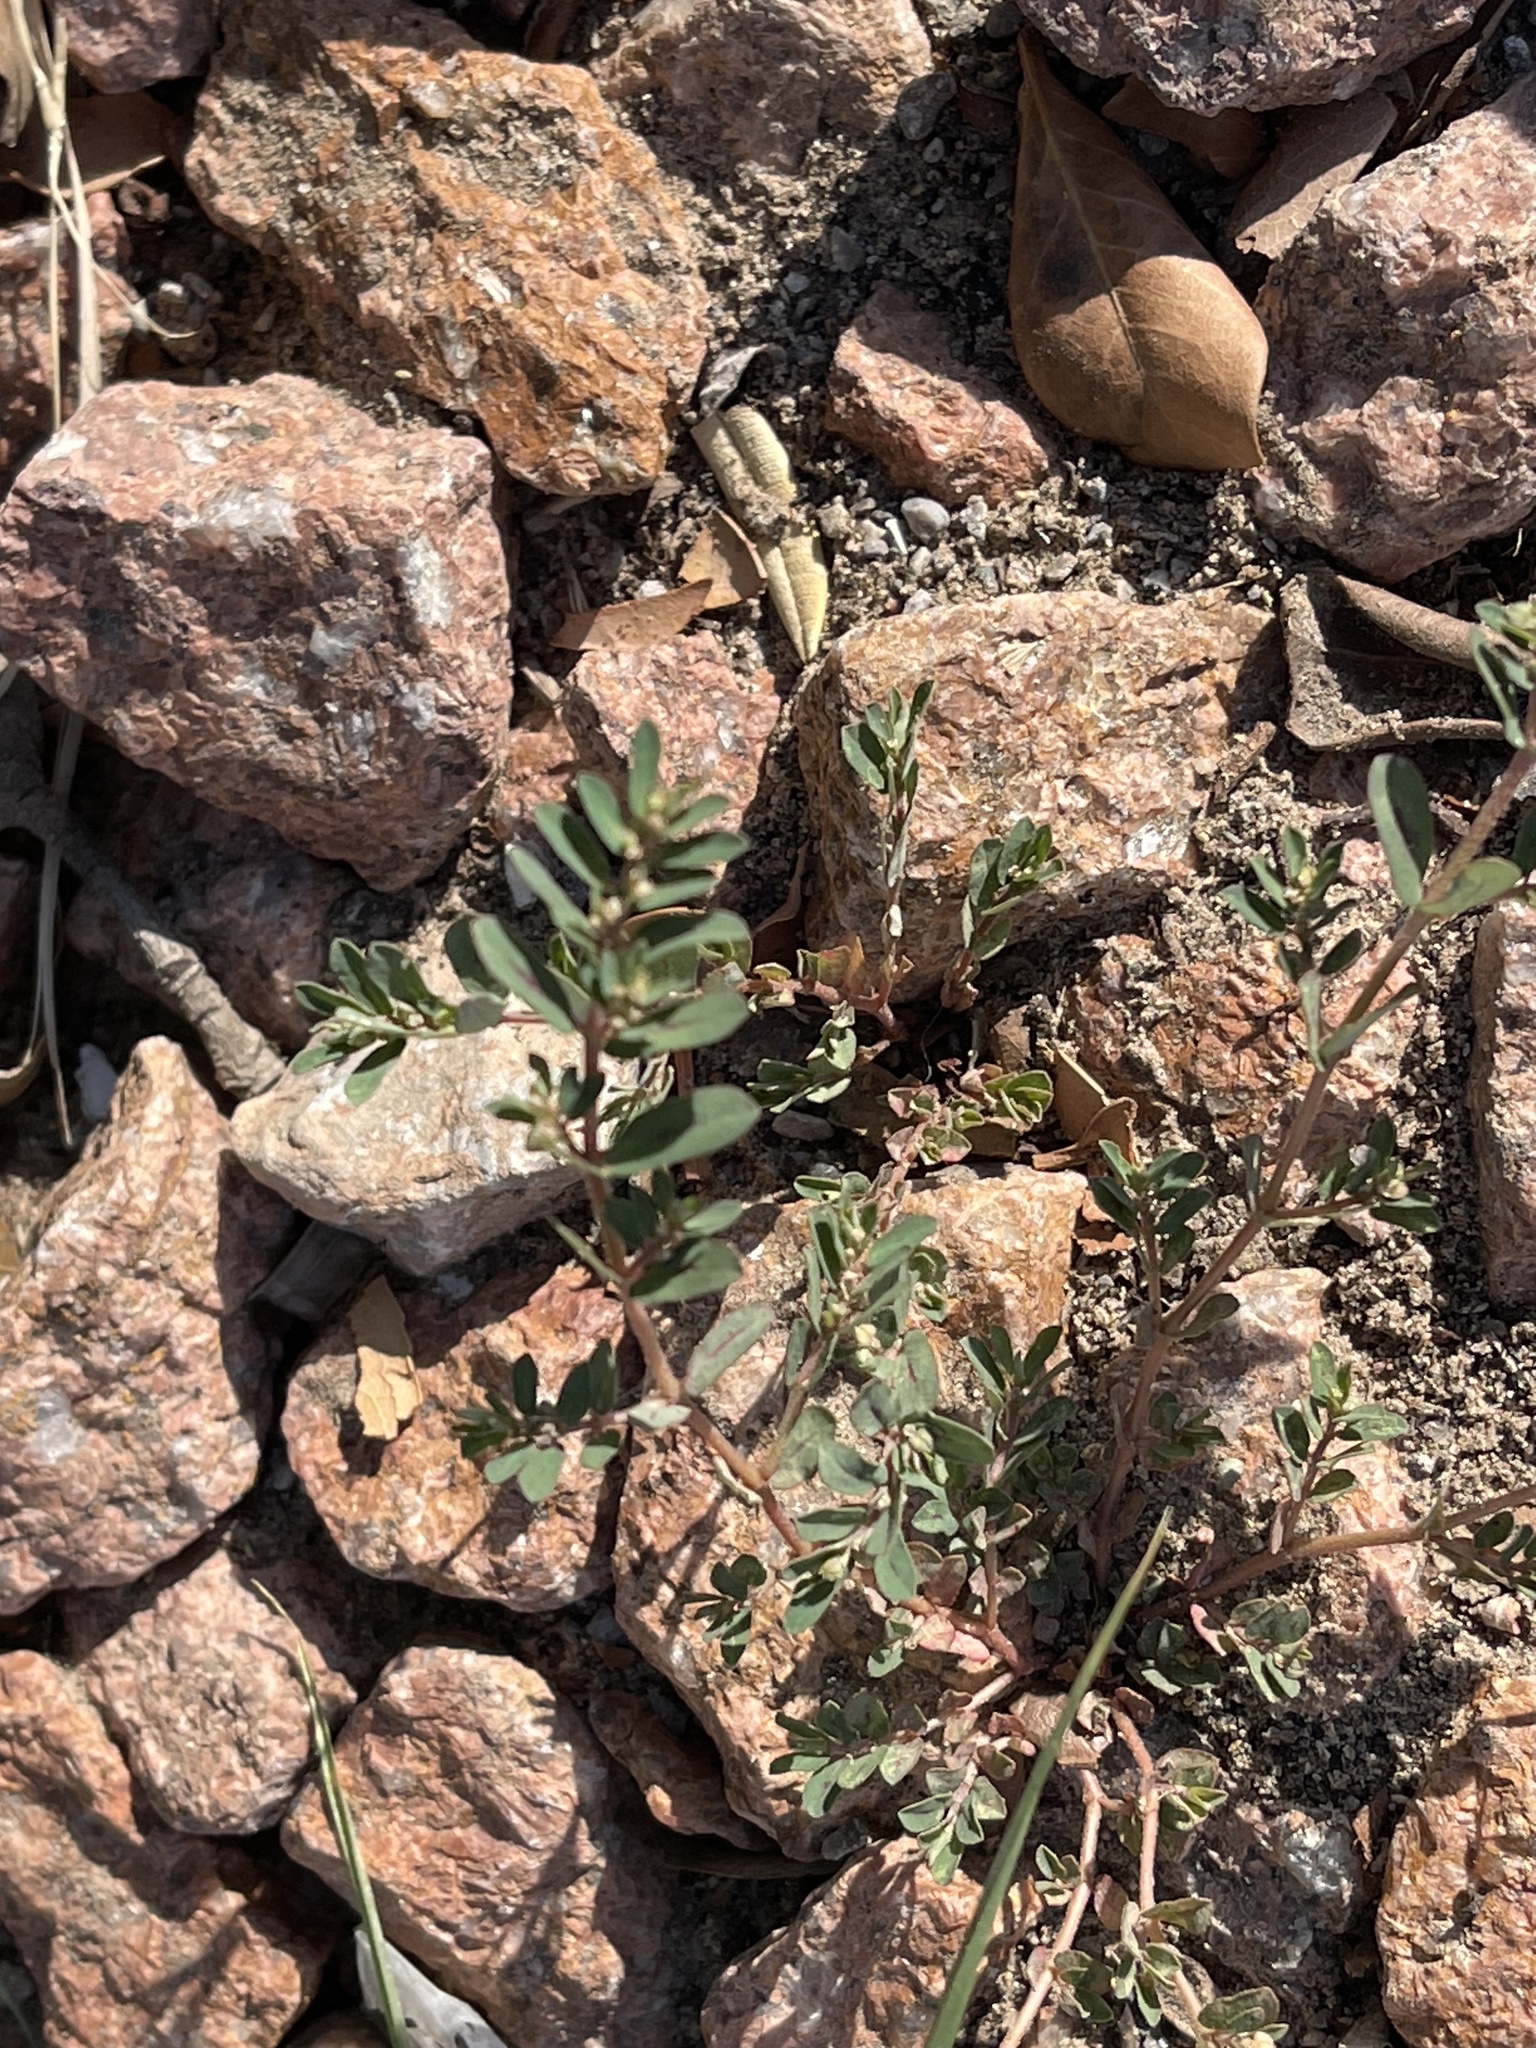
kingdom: Plantae
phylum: Tracheophyta
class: Magnoliopsida
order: Malpighiales
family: Euphorbiaceae
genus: Euphorbia
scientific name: Euphorbia maculata
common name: Spotted spurge
